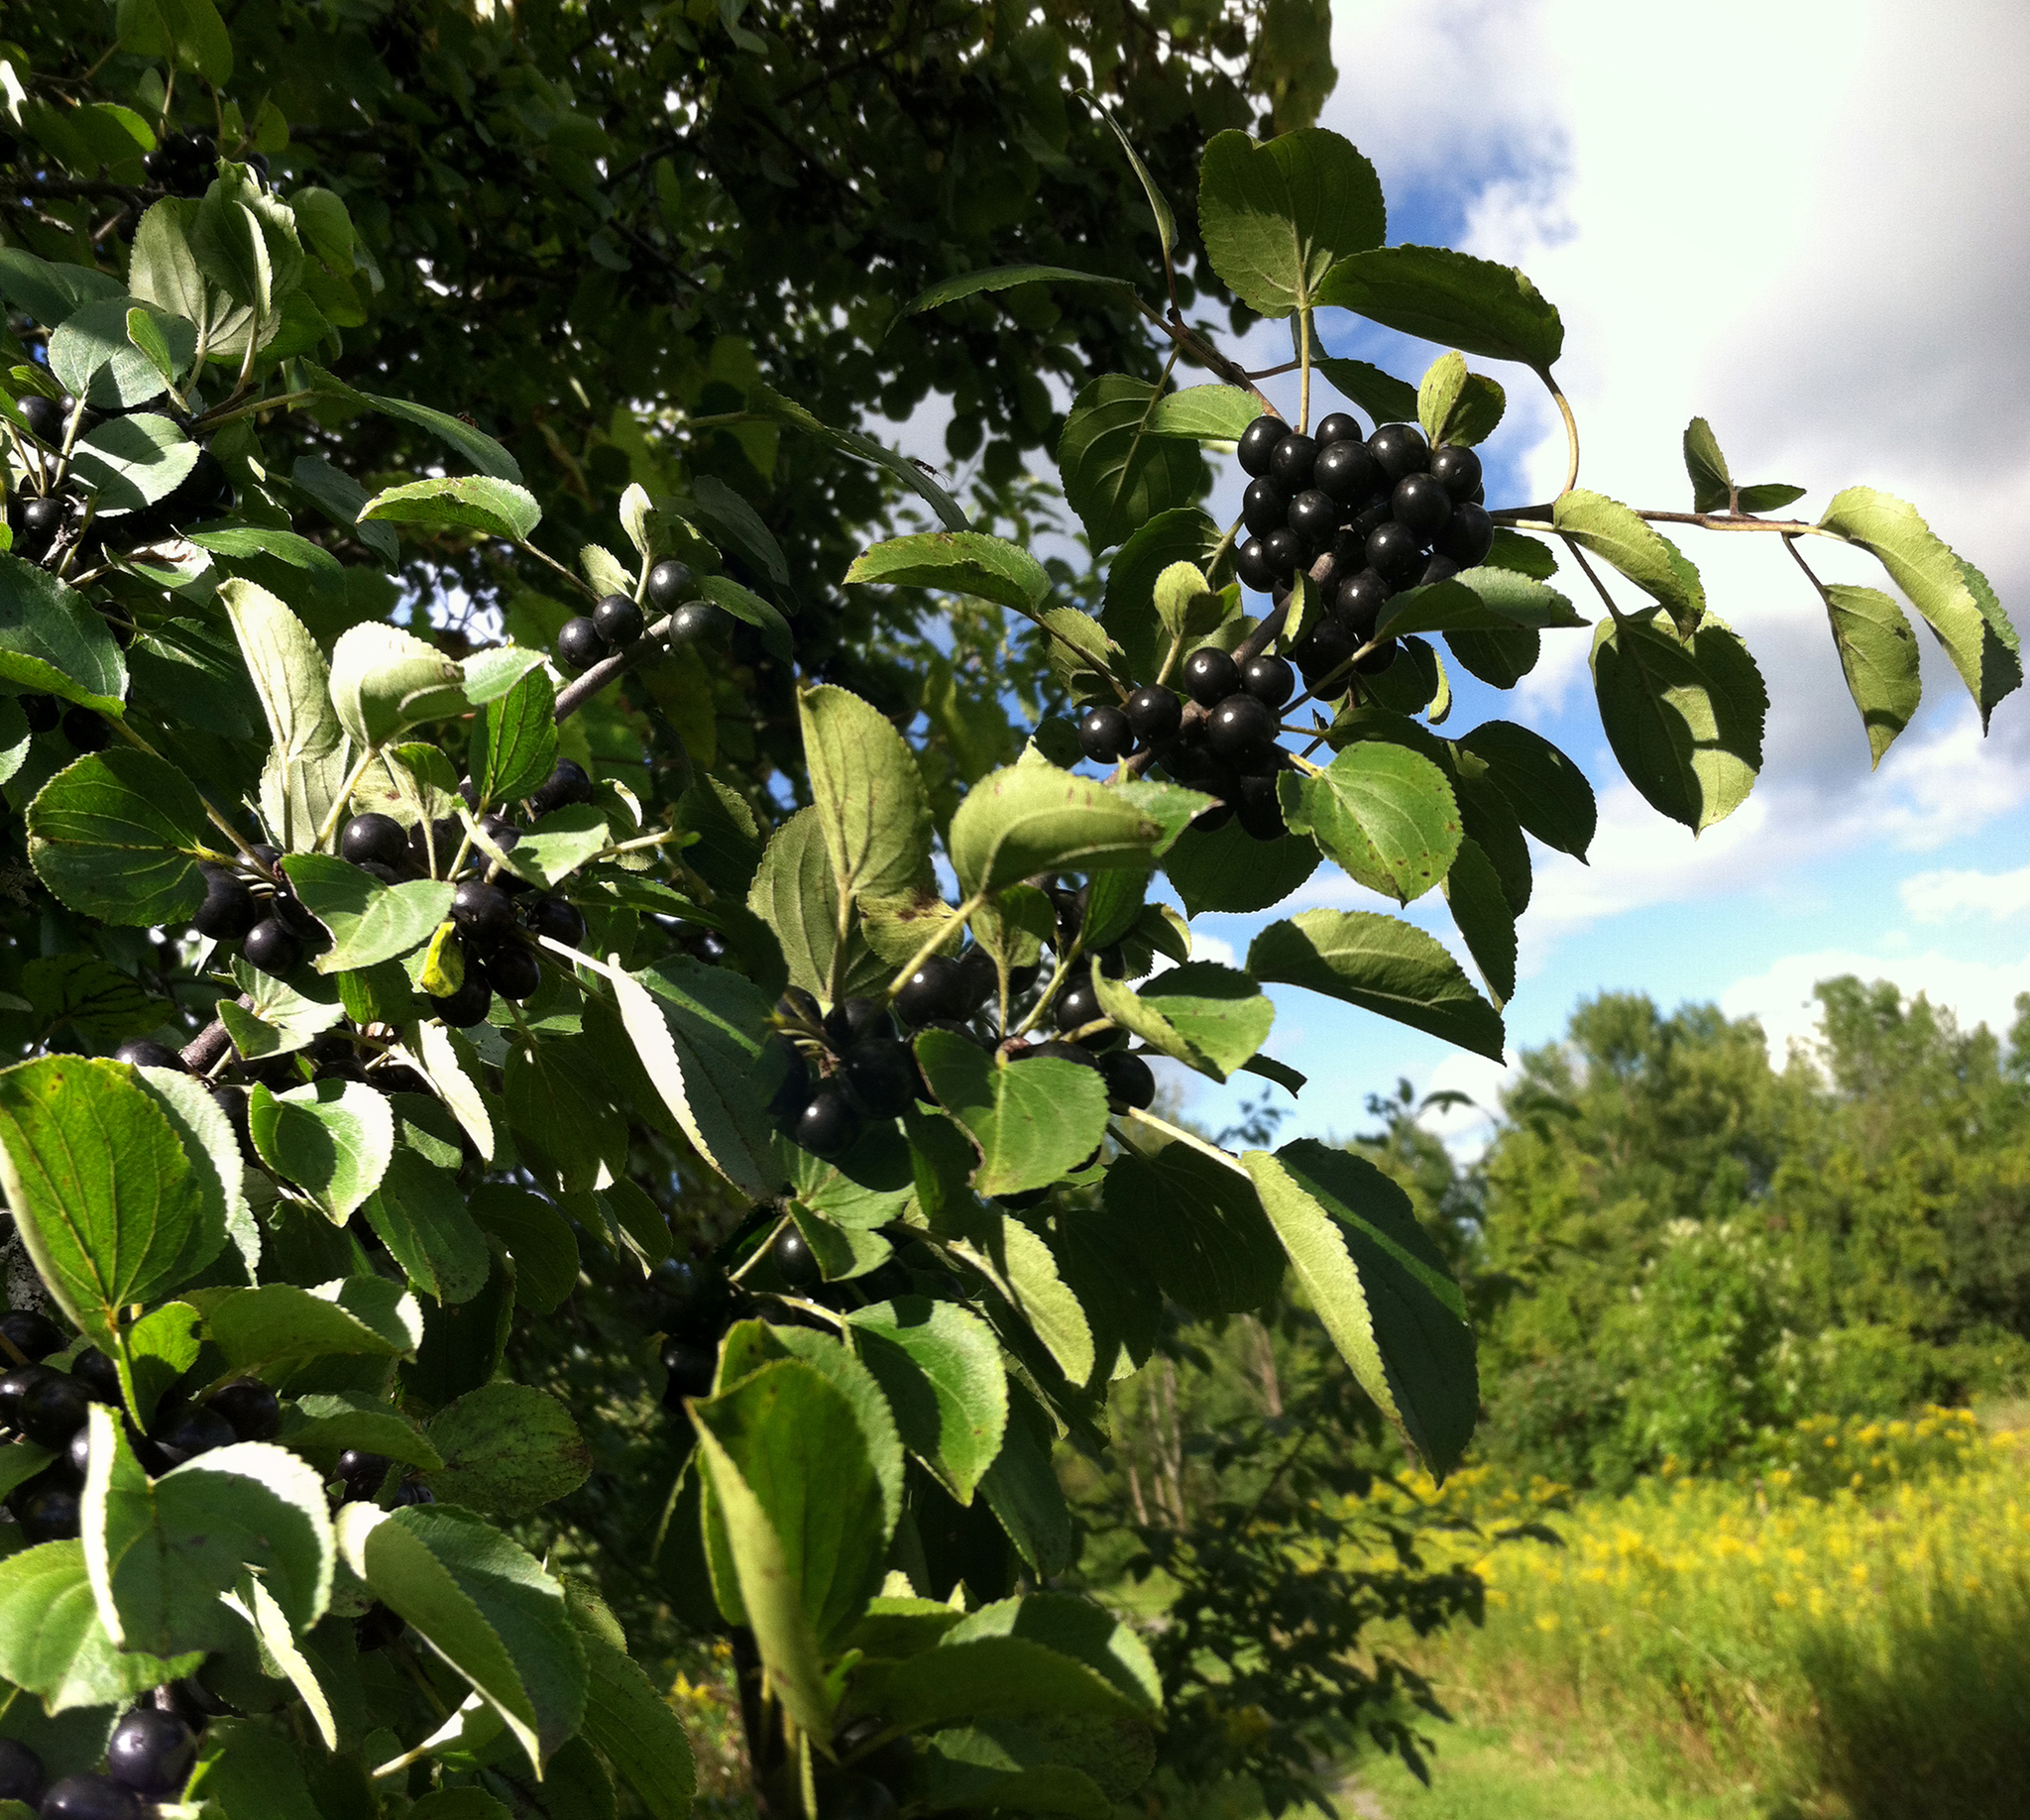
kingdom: Plantae
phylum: Tracheophyta
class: Magnoliopsida
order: Rosales
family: Rhamnaceae
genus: Rhamnus
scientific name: Rhamnus cathartica
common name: Common buckthorn
